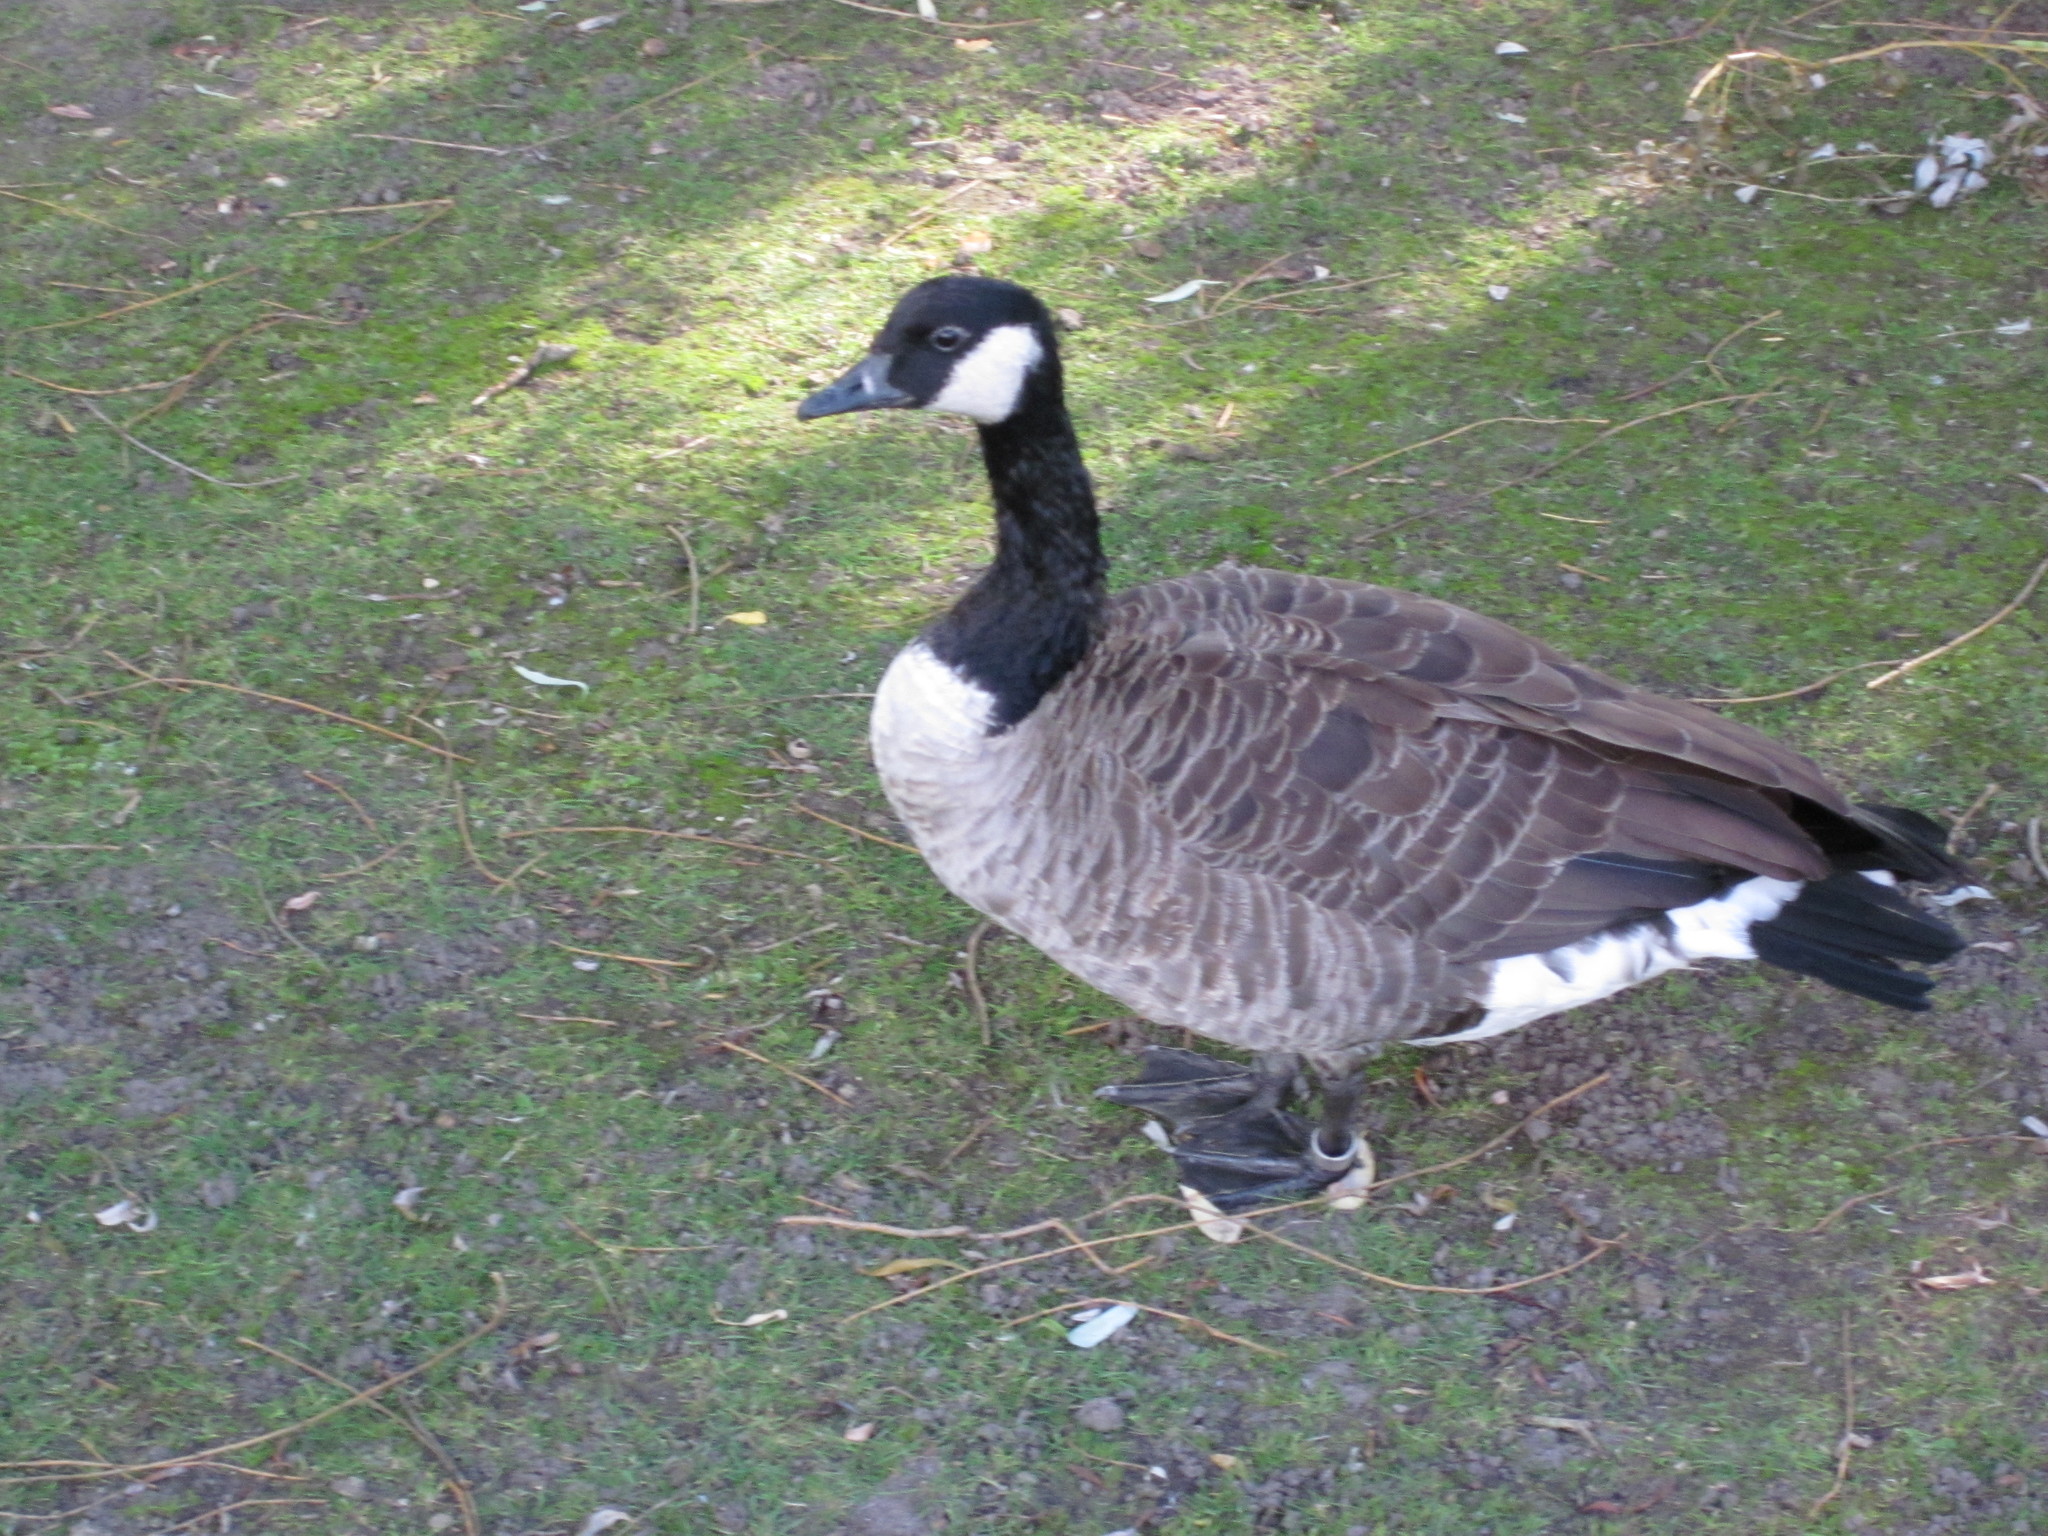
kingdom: Animalia
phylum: Chordata
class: Aves
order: Anseriformes
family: Anatidae
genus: Branta
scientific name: Branta canadensis
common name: Canada goose
